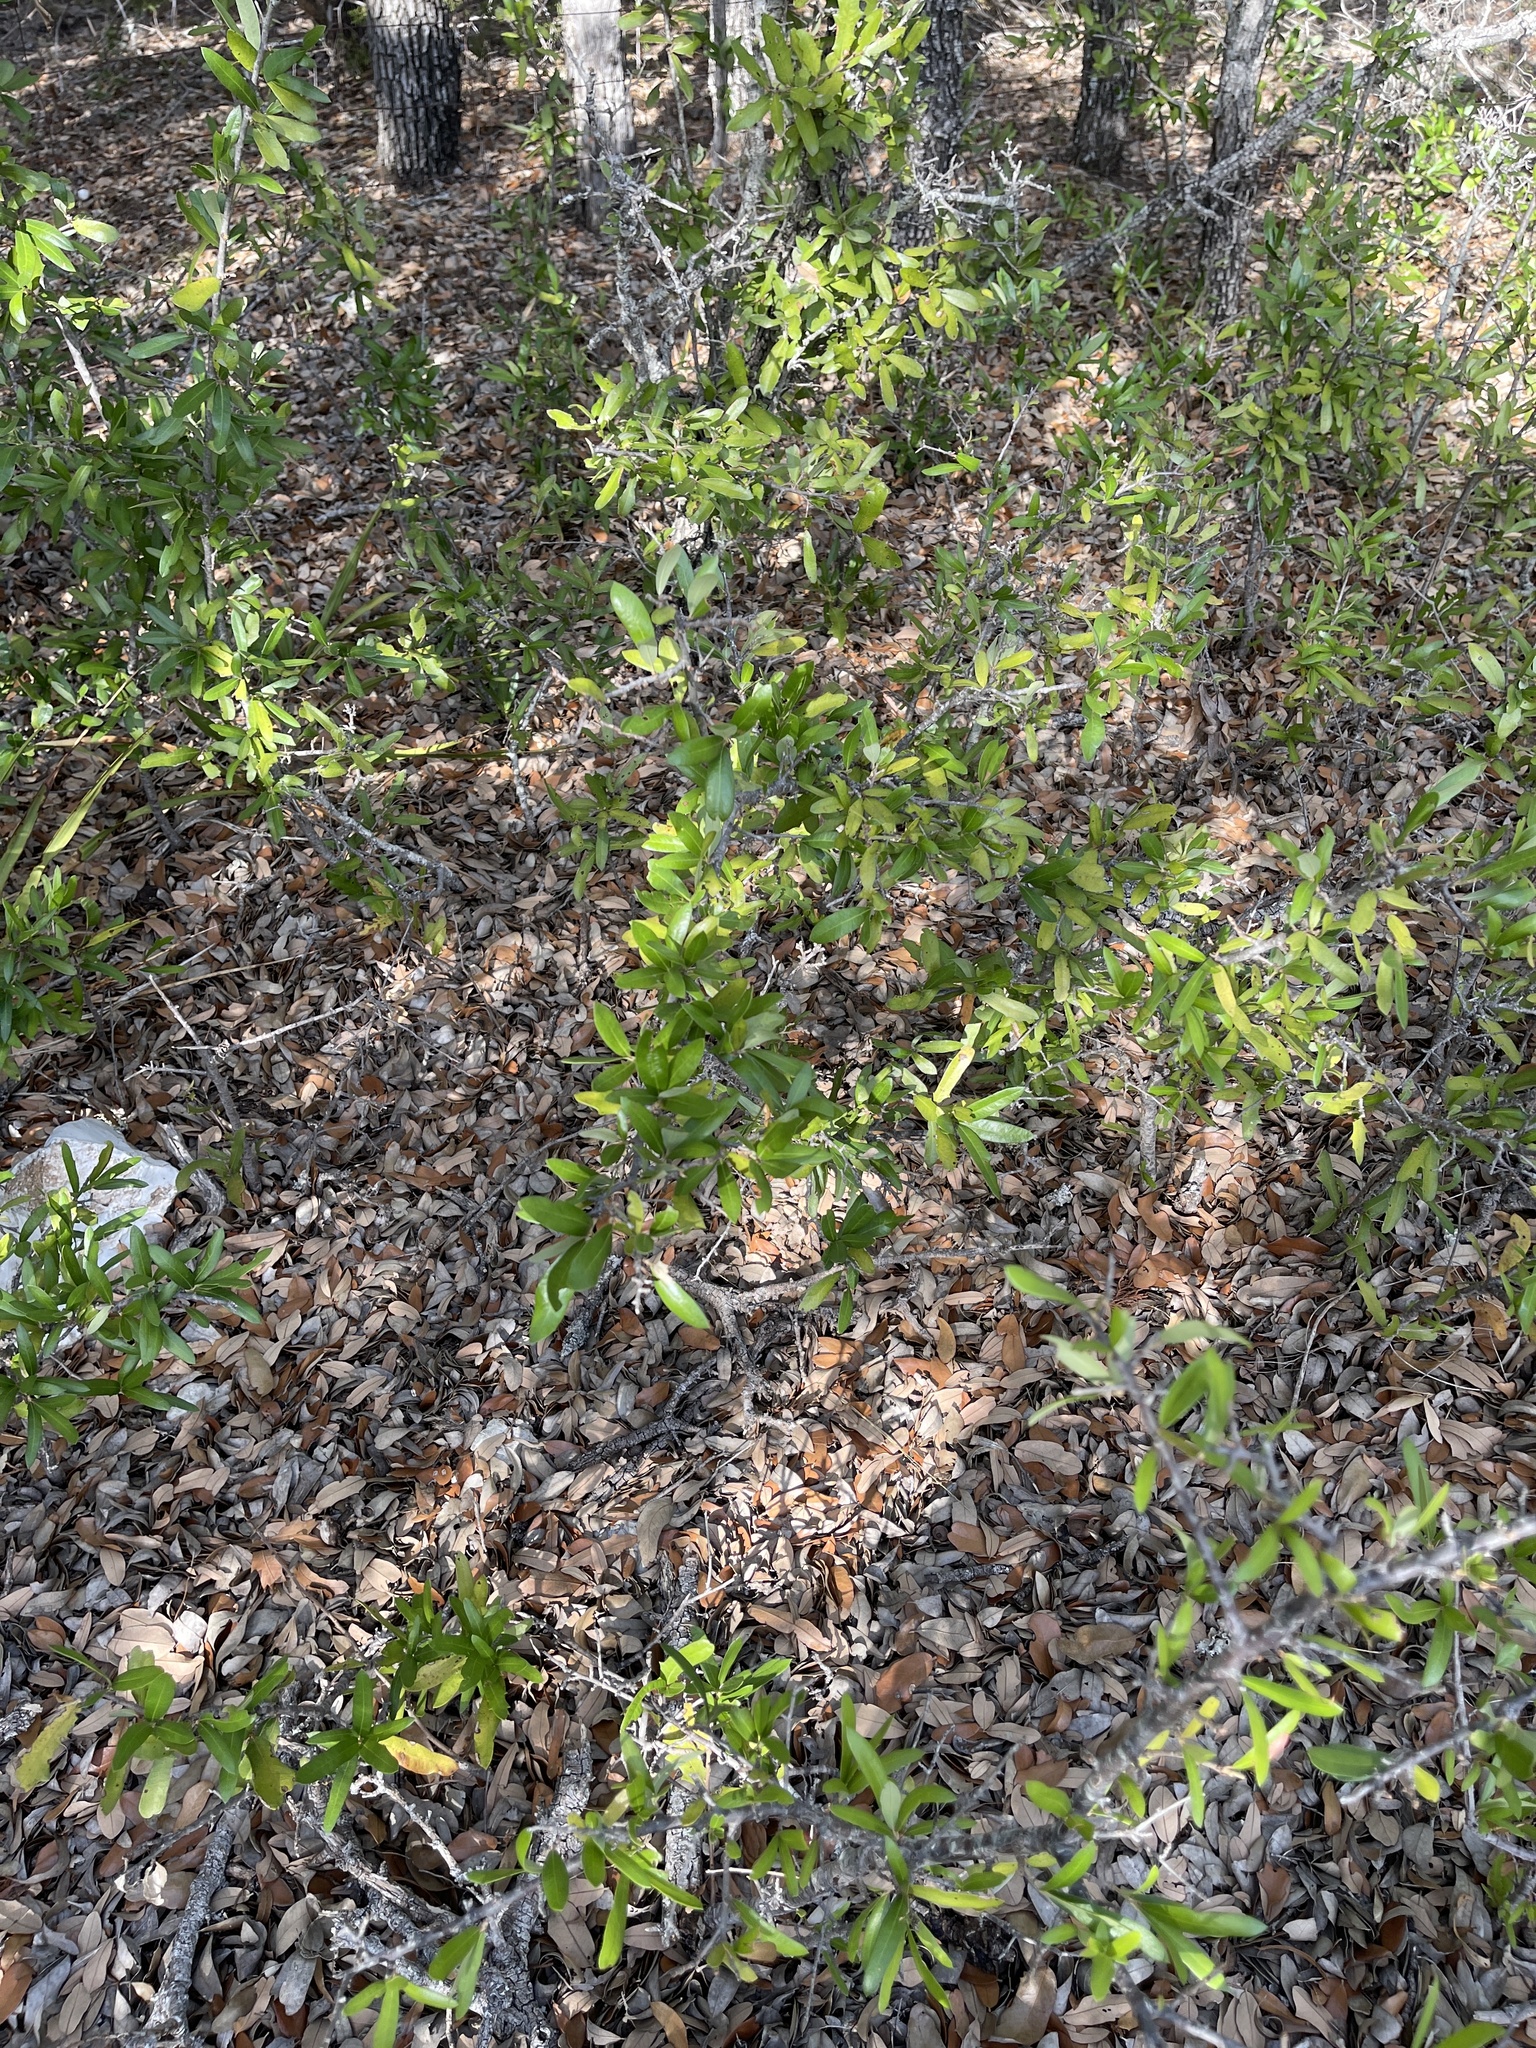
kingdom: Plantae
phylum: Tracheophyta
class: Magnoliopsida
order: Fagales
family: Fagaceae
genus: Quercus
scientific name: Quercus fusiformis
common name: Texas live oak
